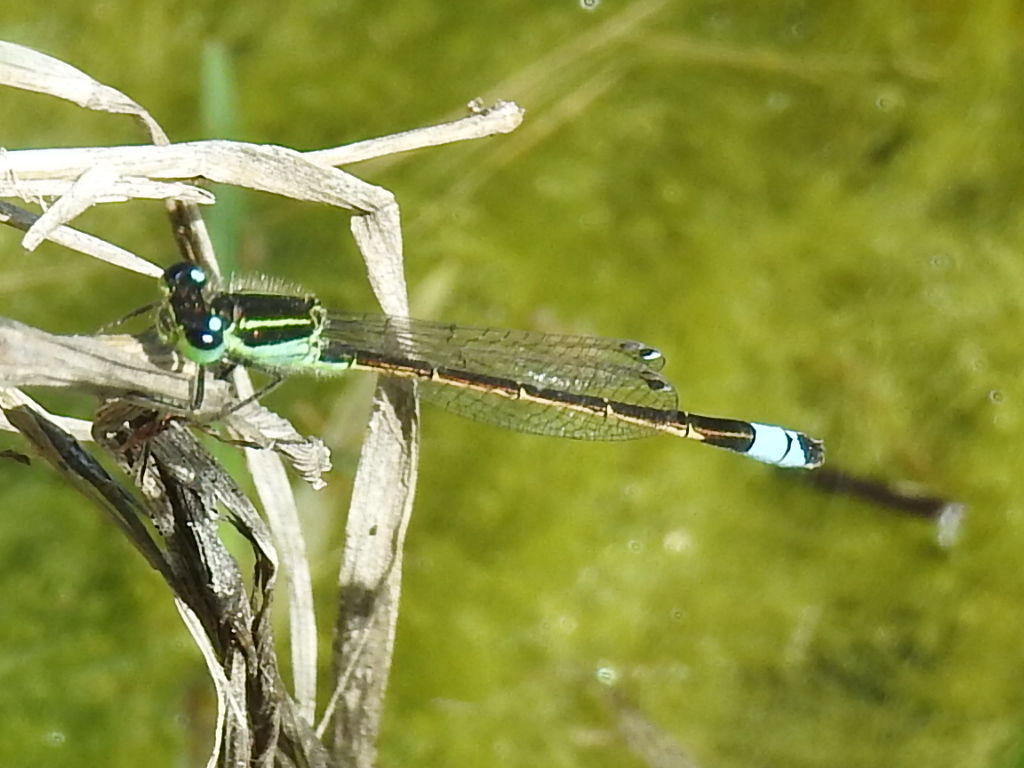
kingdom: Animalia
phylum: Arthropoda
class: Insecta
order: Odonata
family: Coenagrionidae
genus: Ischnura
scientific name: Ischnura ramburii
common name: Rambur's forktail
